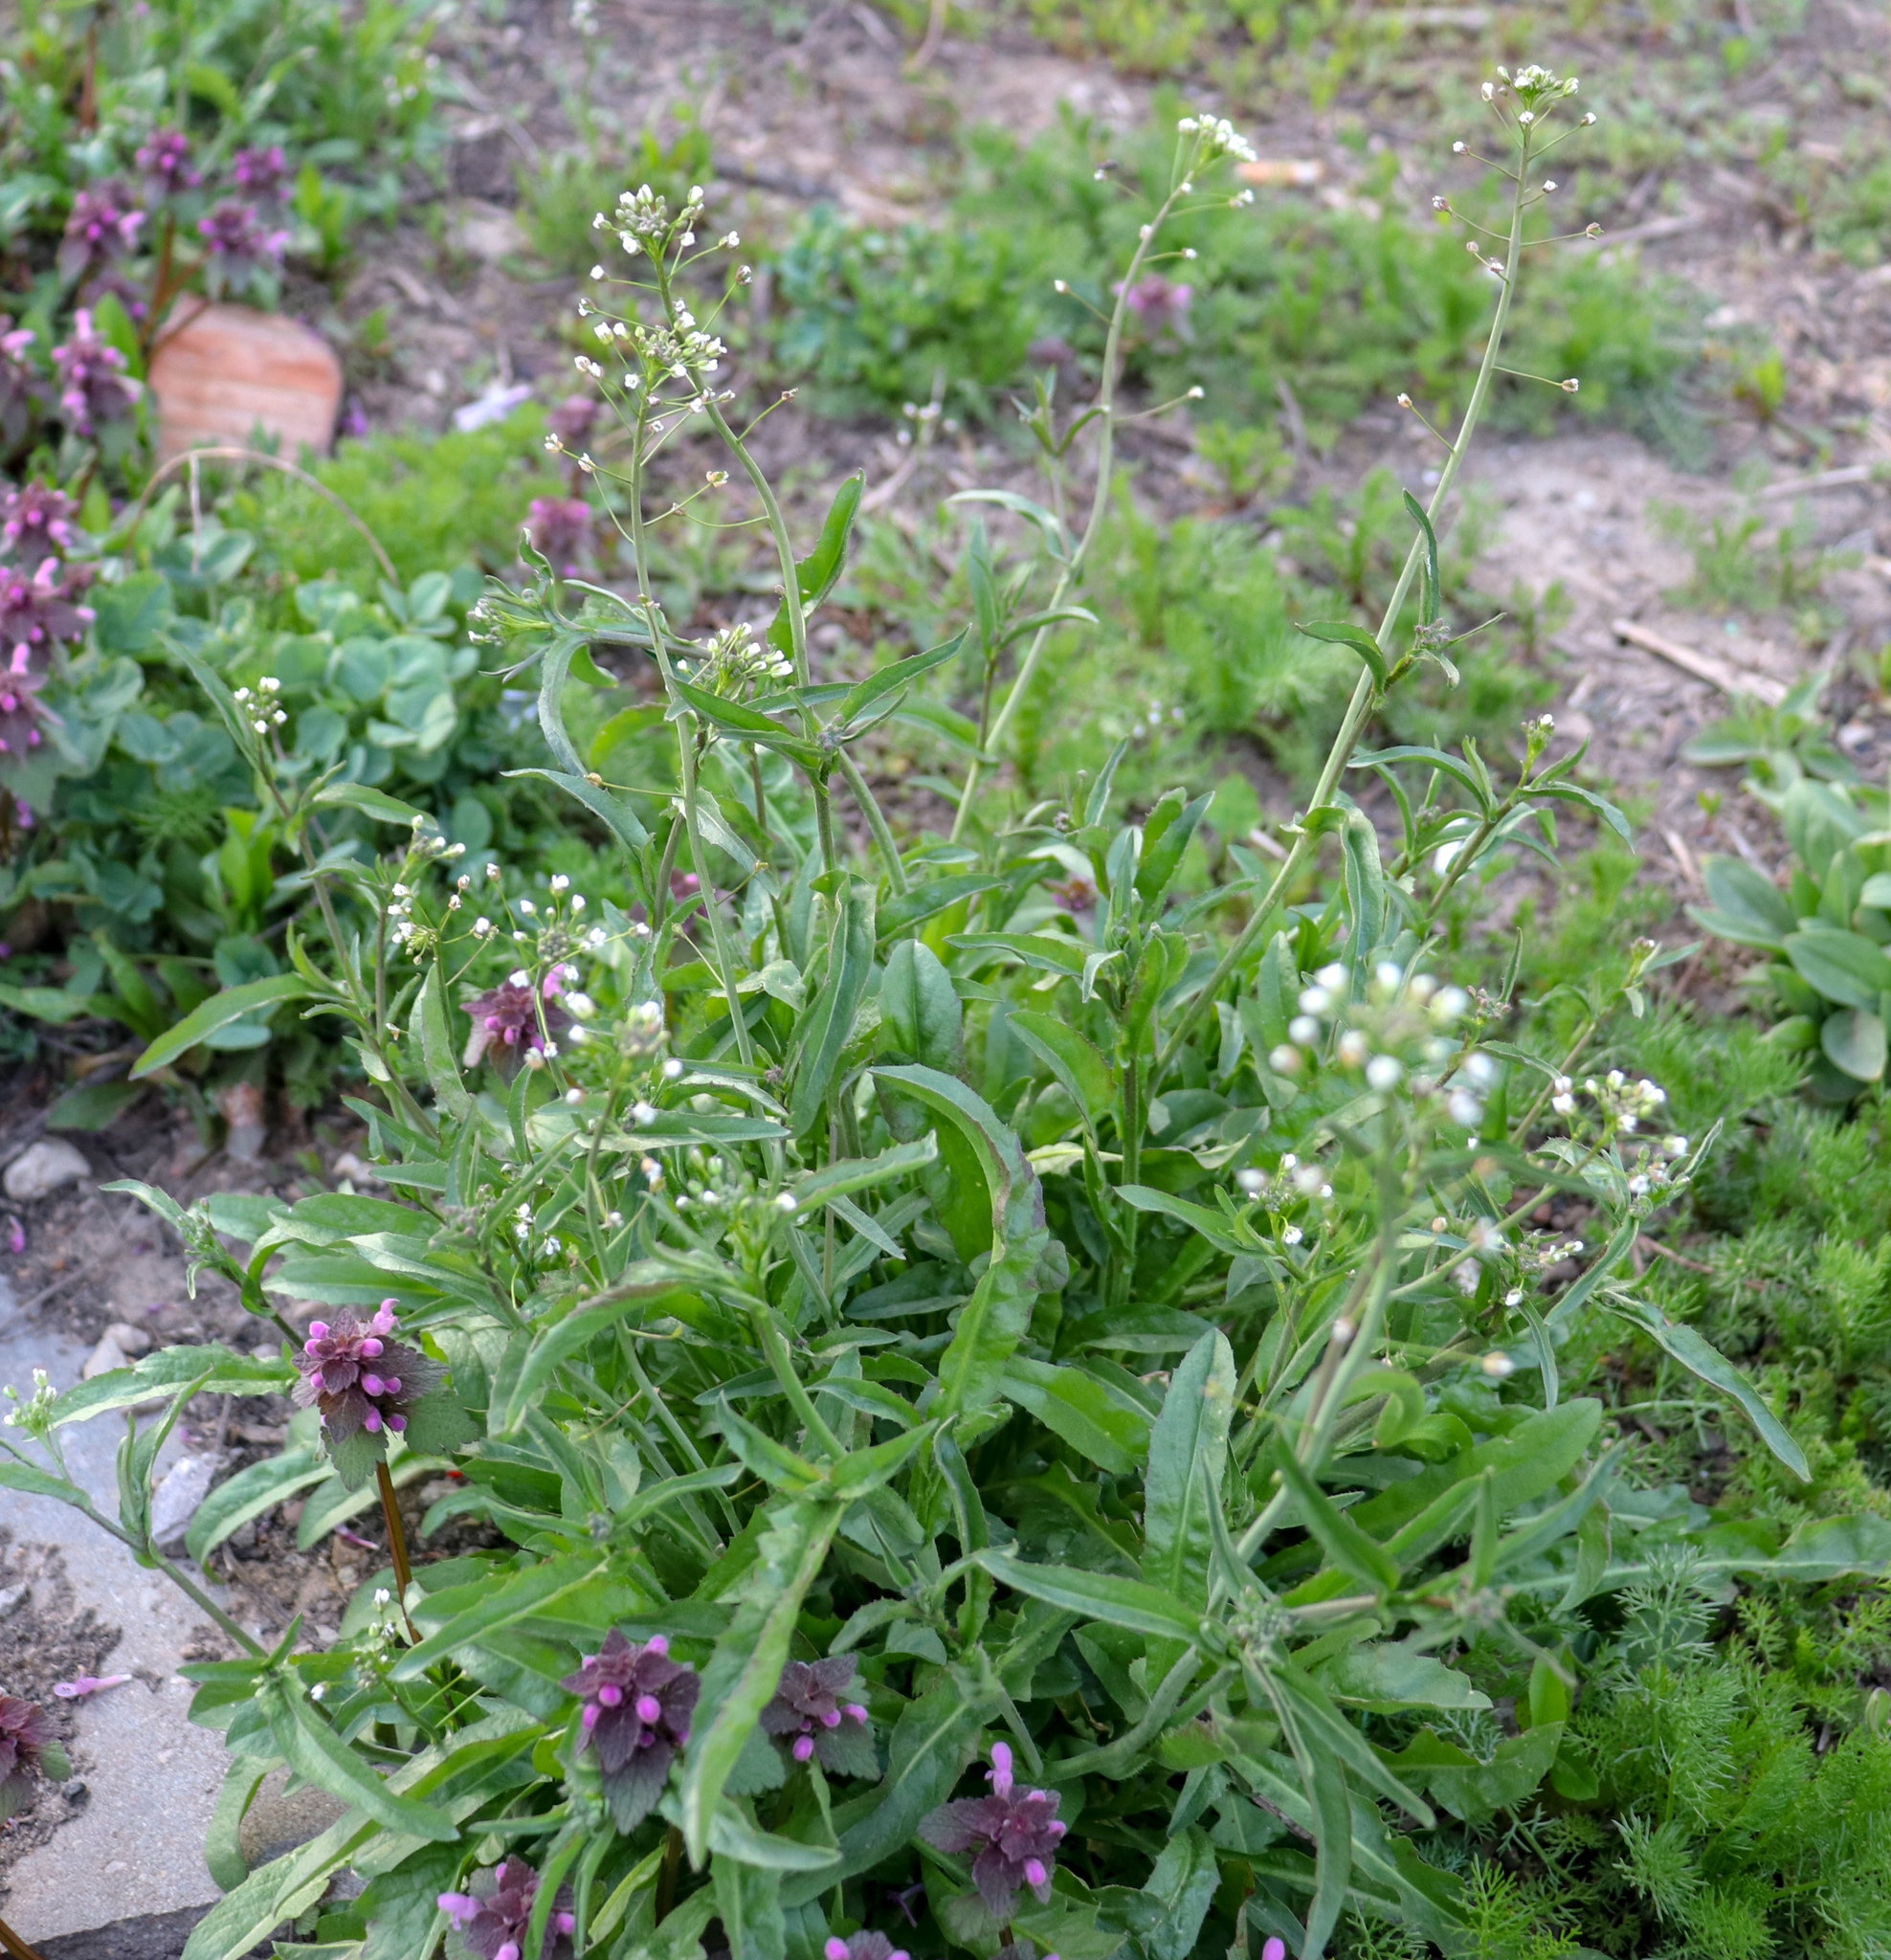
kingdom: Plantae
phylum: Tracheophyta
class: Magnoliopsida
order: Brassicales
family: Brassicaceae
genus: Capsella
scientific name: Capsella bursa-pastoris
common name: Shepherd's purse
